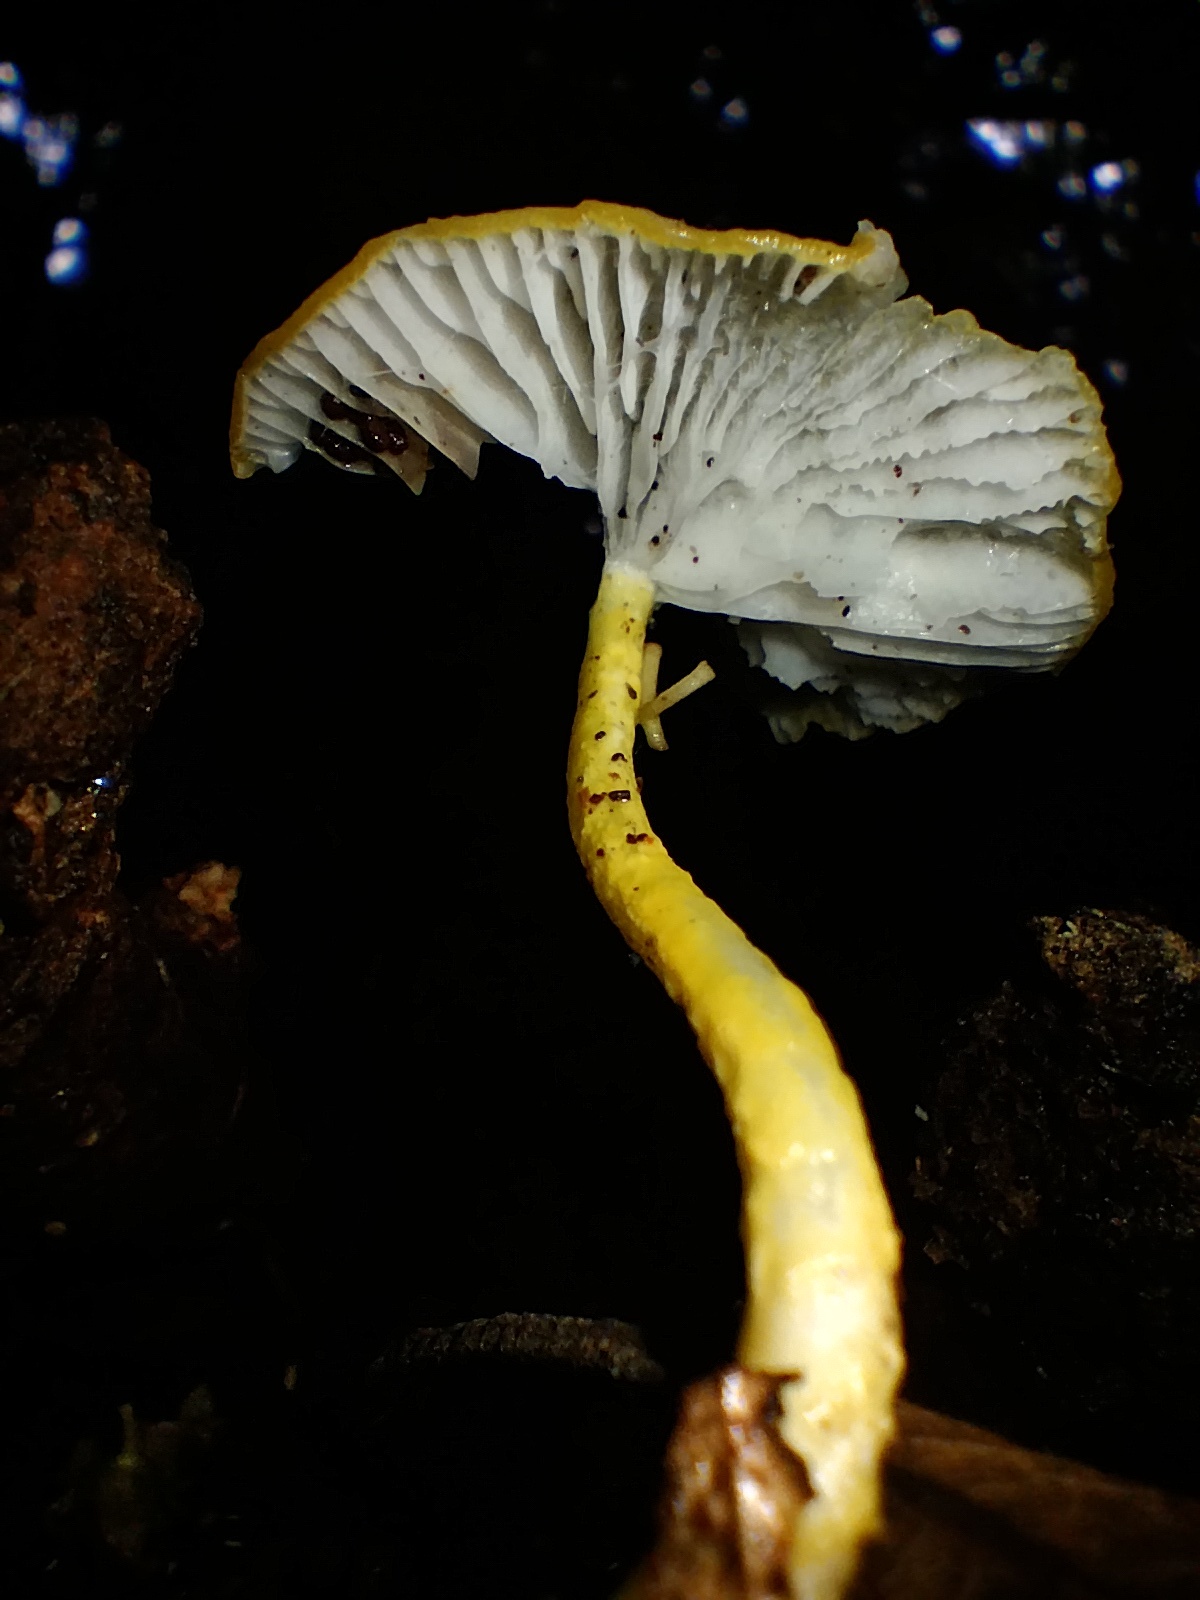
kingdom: Fungi
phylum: Basidiomycota
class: Agaricomycetes
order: Agaricales
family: Physalacriaceae
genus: Cyptotrama
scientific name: Cyptotrama asprata
